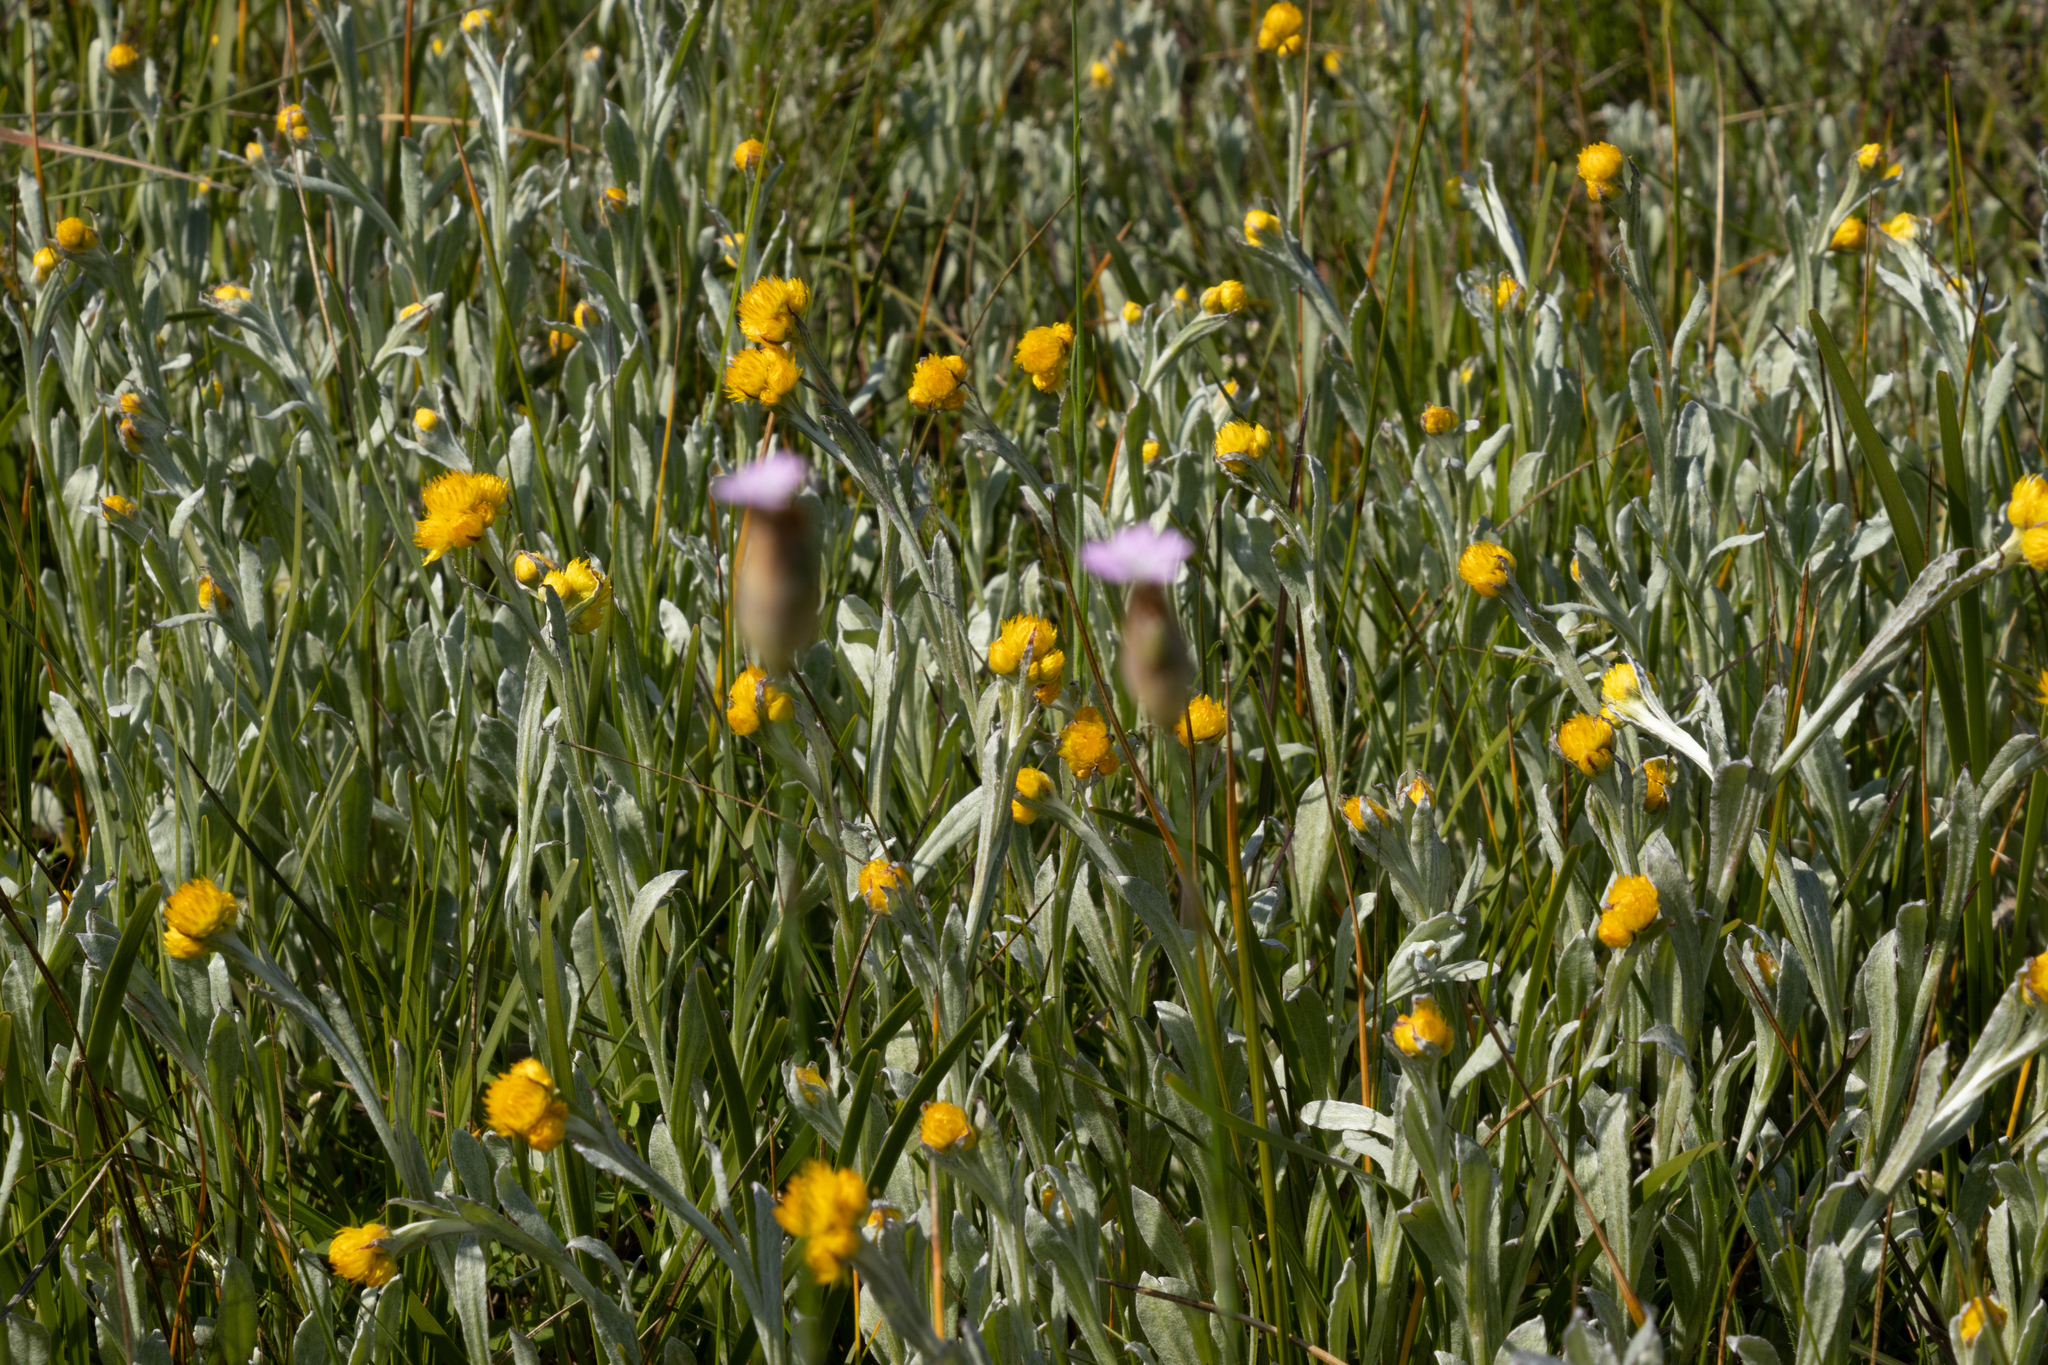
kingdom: Plantae
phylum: Tracheophyta
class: Magnoliopsida
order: Asterales
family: Asteraceae
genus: Chrysocephalum
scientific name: Chrysocephalum apiculatum
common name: Common everlasting
